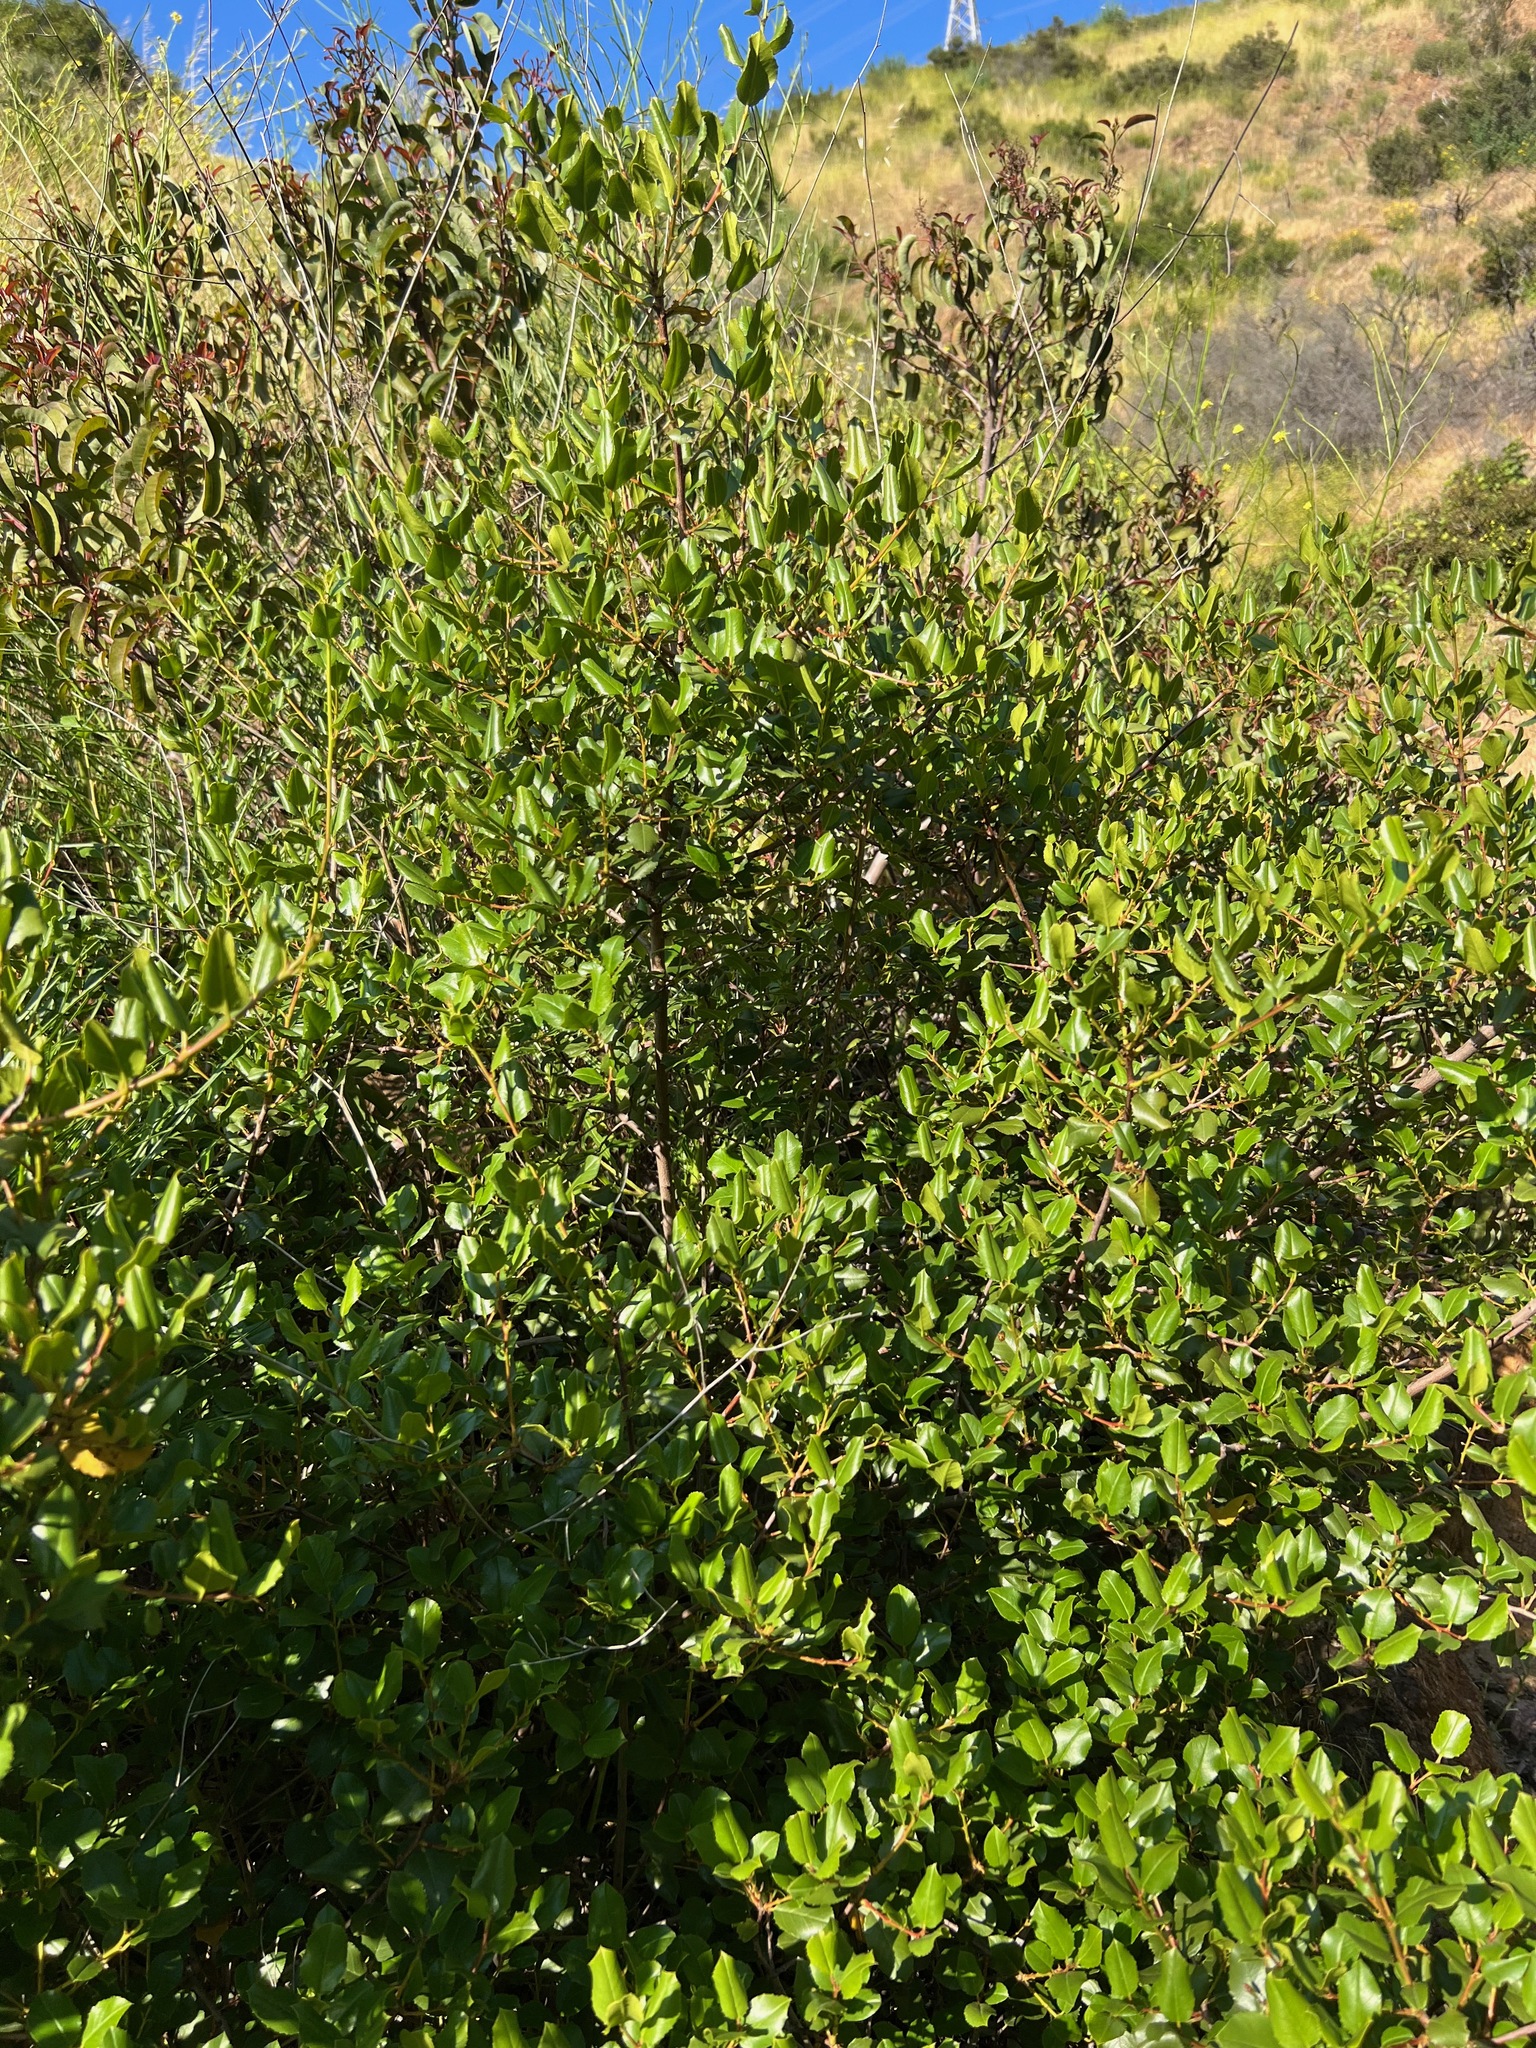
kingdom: Plantae
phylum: Tracheophyta
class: Magnoliopsida
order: Rosales
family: Rhamnaceae
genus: Endotropis
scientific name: Endotropis crocea
